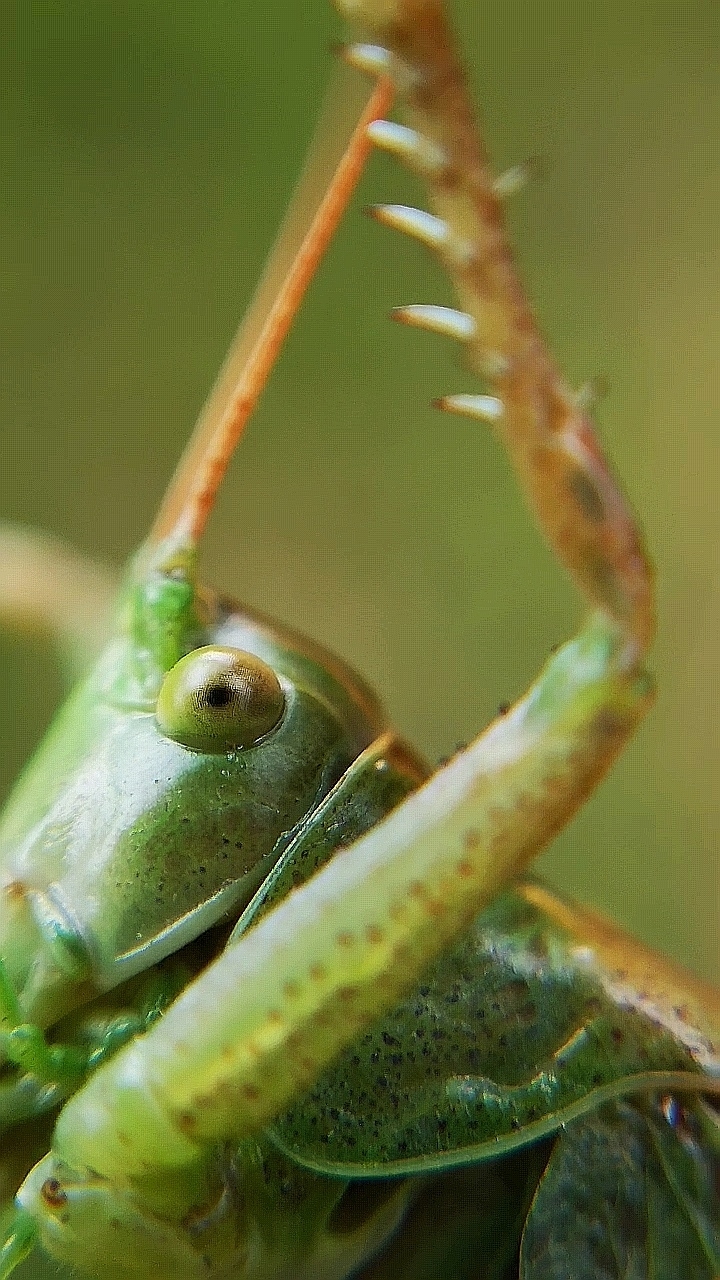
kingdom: Animalia
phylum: Arthropoda
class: Insecta
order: Orthoptera
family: Tettigoniidae
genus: Tettigonia
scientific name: Tettigonia cantans
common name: Upland green bush-cricket
